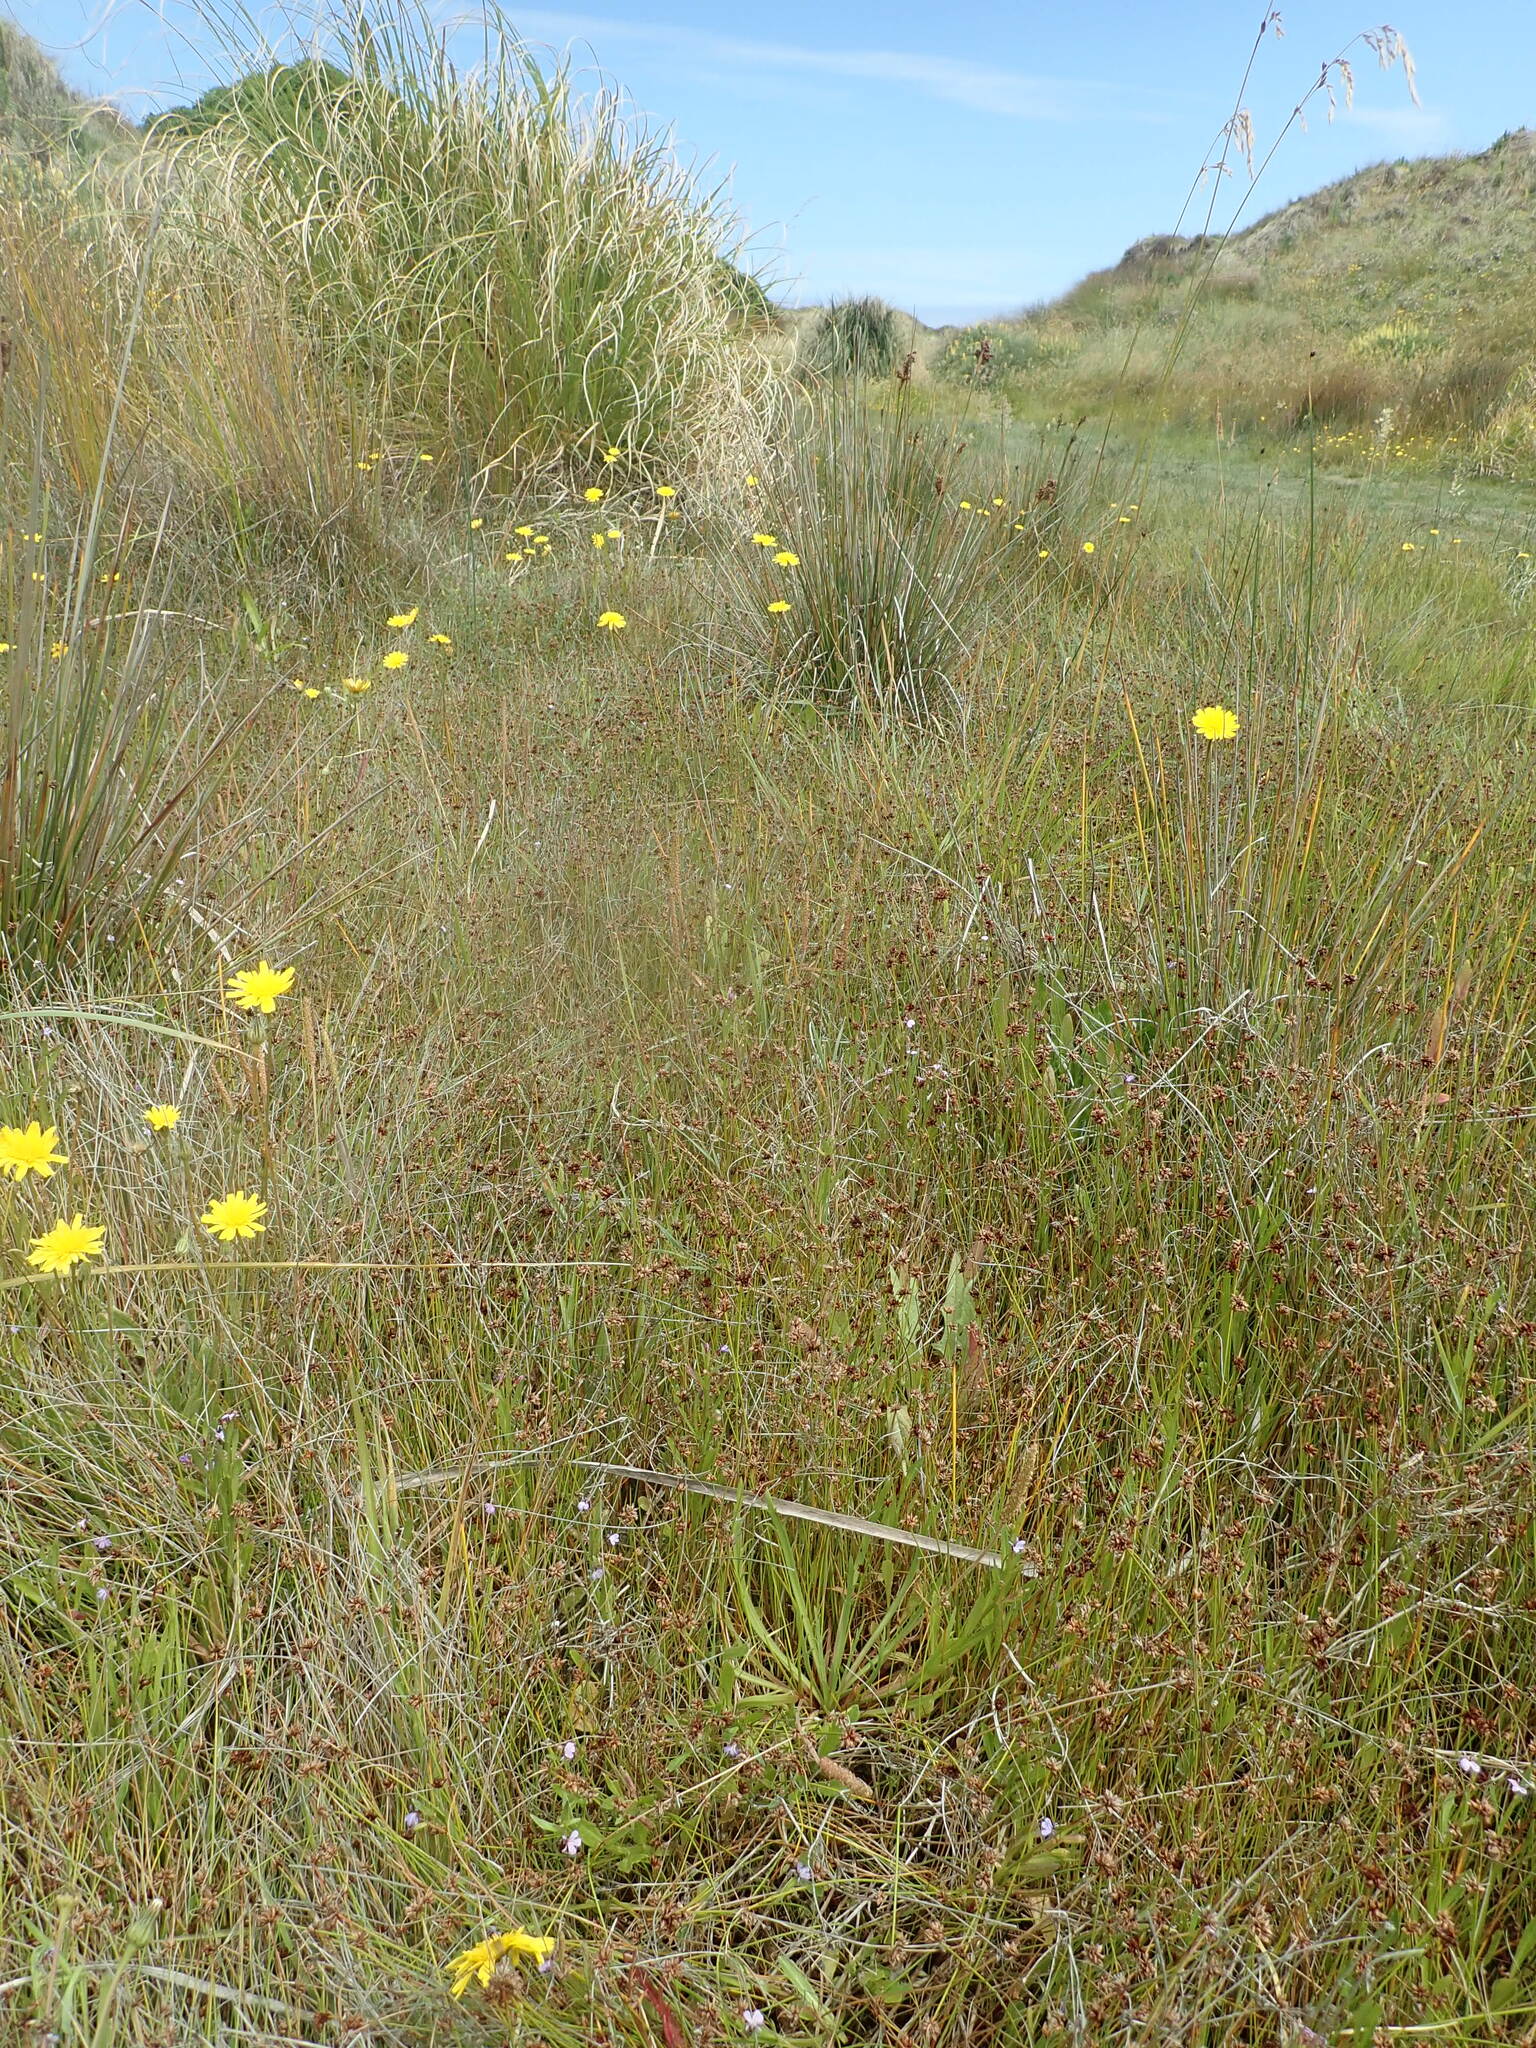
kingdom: Plantae
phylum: Tracheophyta
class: Magnoliopsida
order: Lamiales
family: Plantaginaceae
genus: Plantago
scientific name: Plantago coronopus
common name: Buck's-horn plantain
